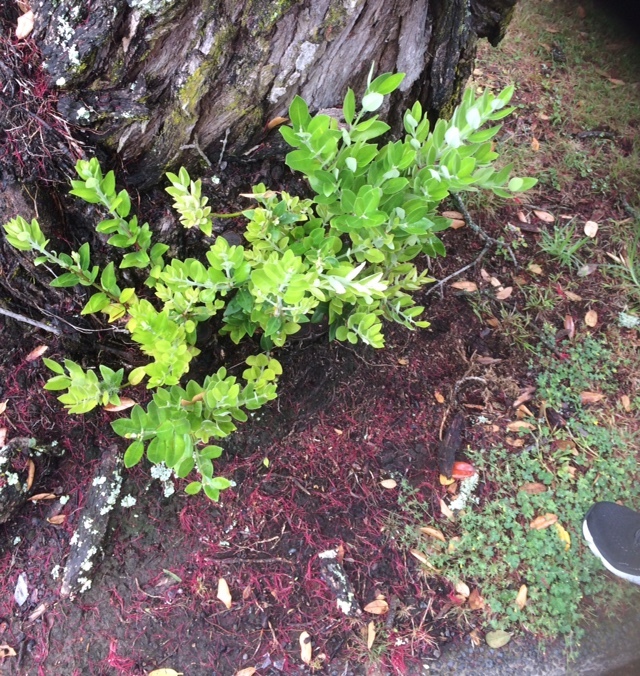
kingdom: Fungi
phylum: Basidiomycota
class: Pucciniomycetes
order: Pucciniales
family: Sphaerophragmiaceae
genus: Austropuccinia
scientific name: Austropuccinia psidii
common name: Myrtle rust
